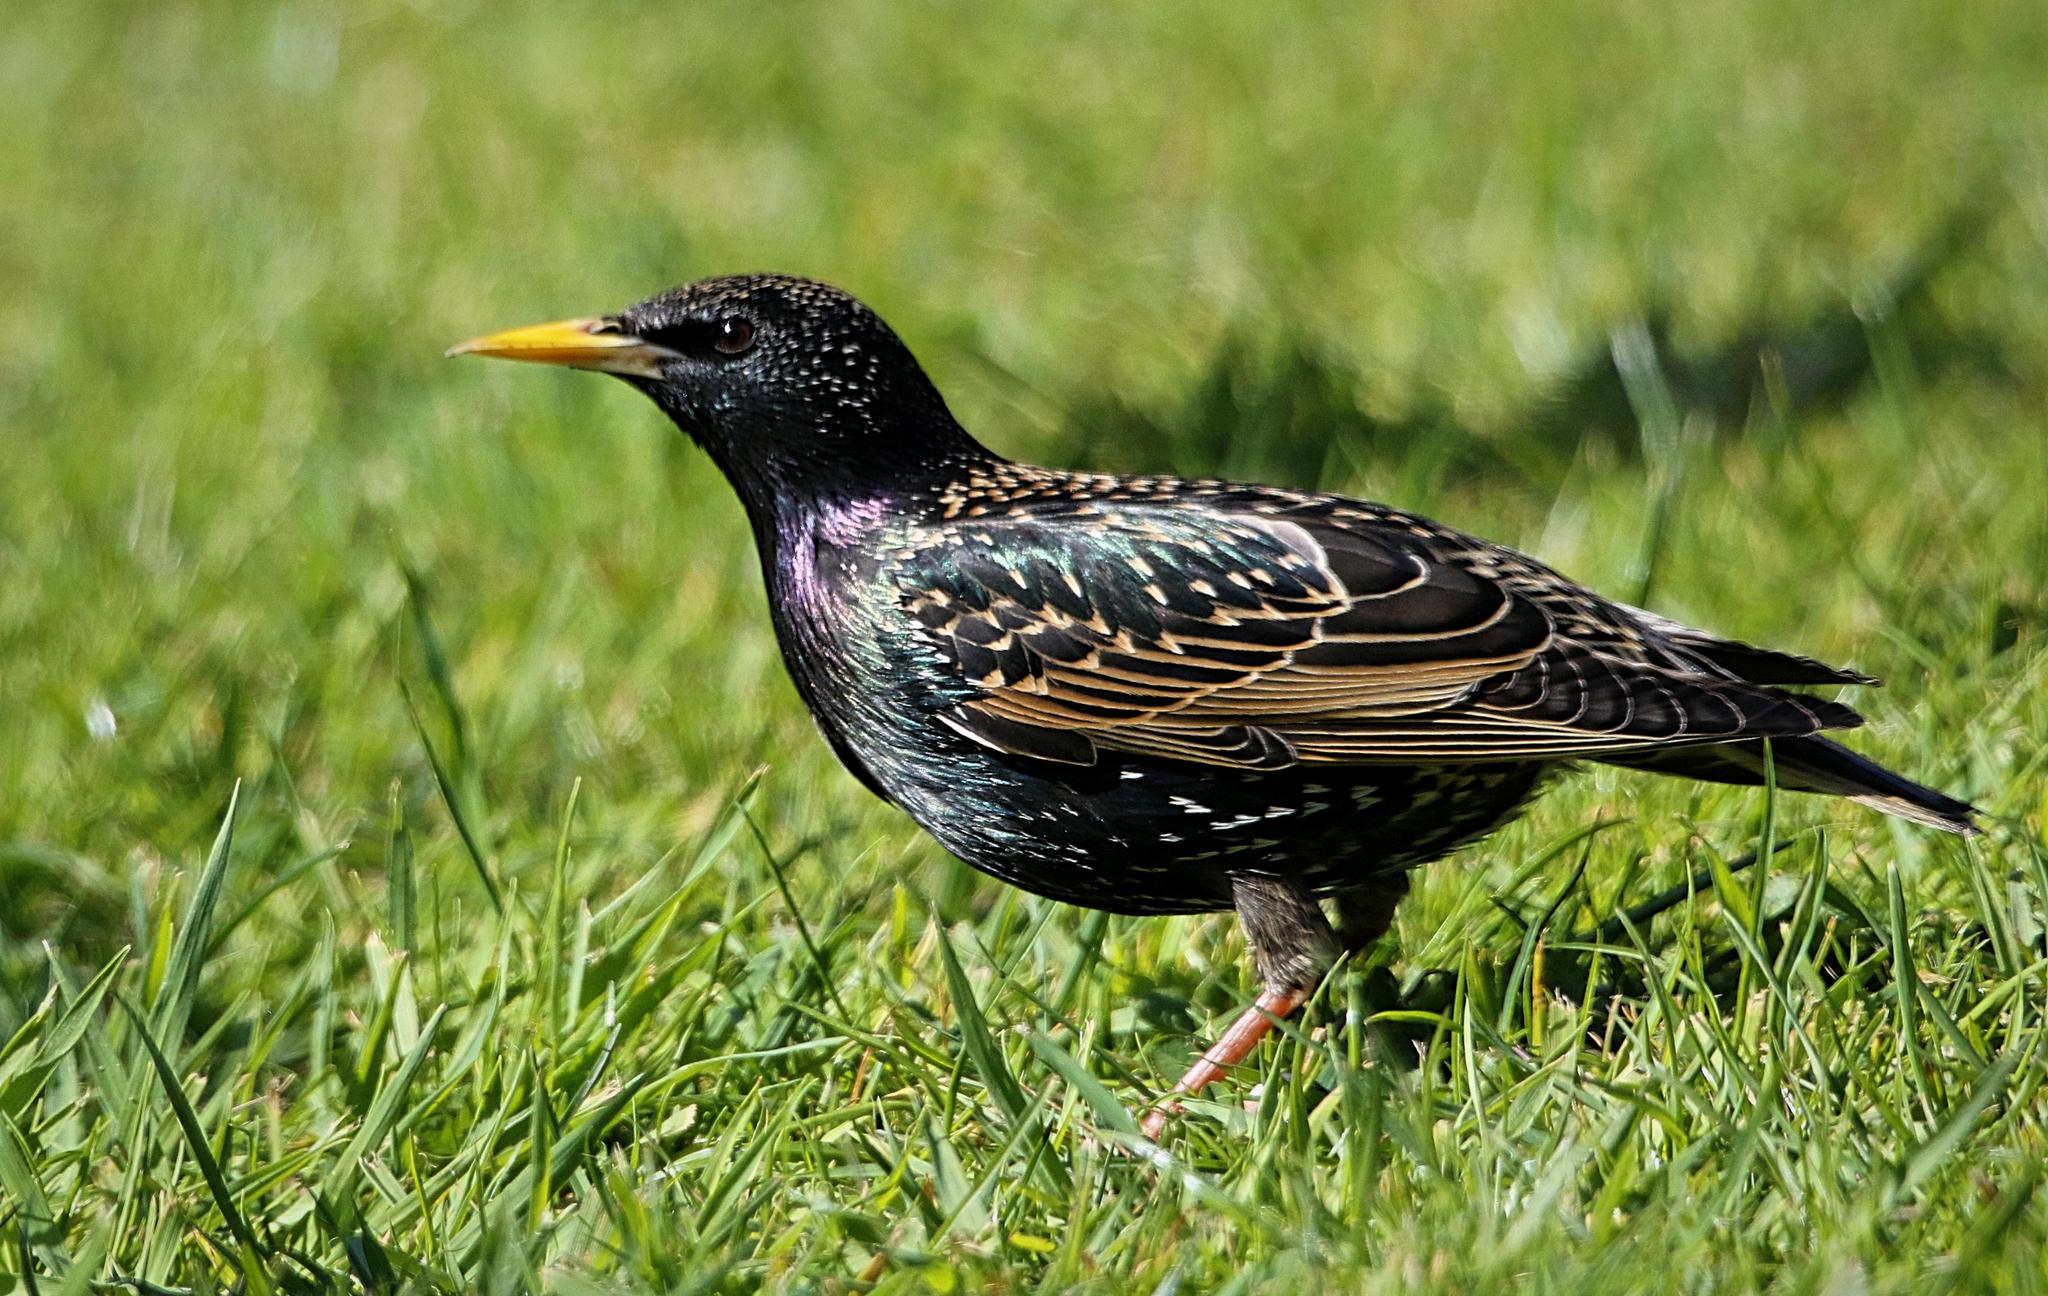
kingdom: Animalia
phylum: Chordata
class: Aves
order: Passeriformes
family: Sturnidae
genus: Sturnus
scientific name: Sturnus vulgaris
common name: Common starling
